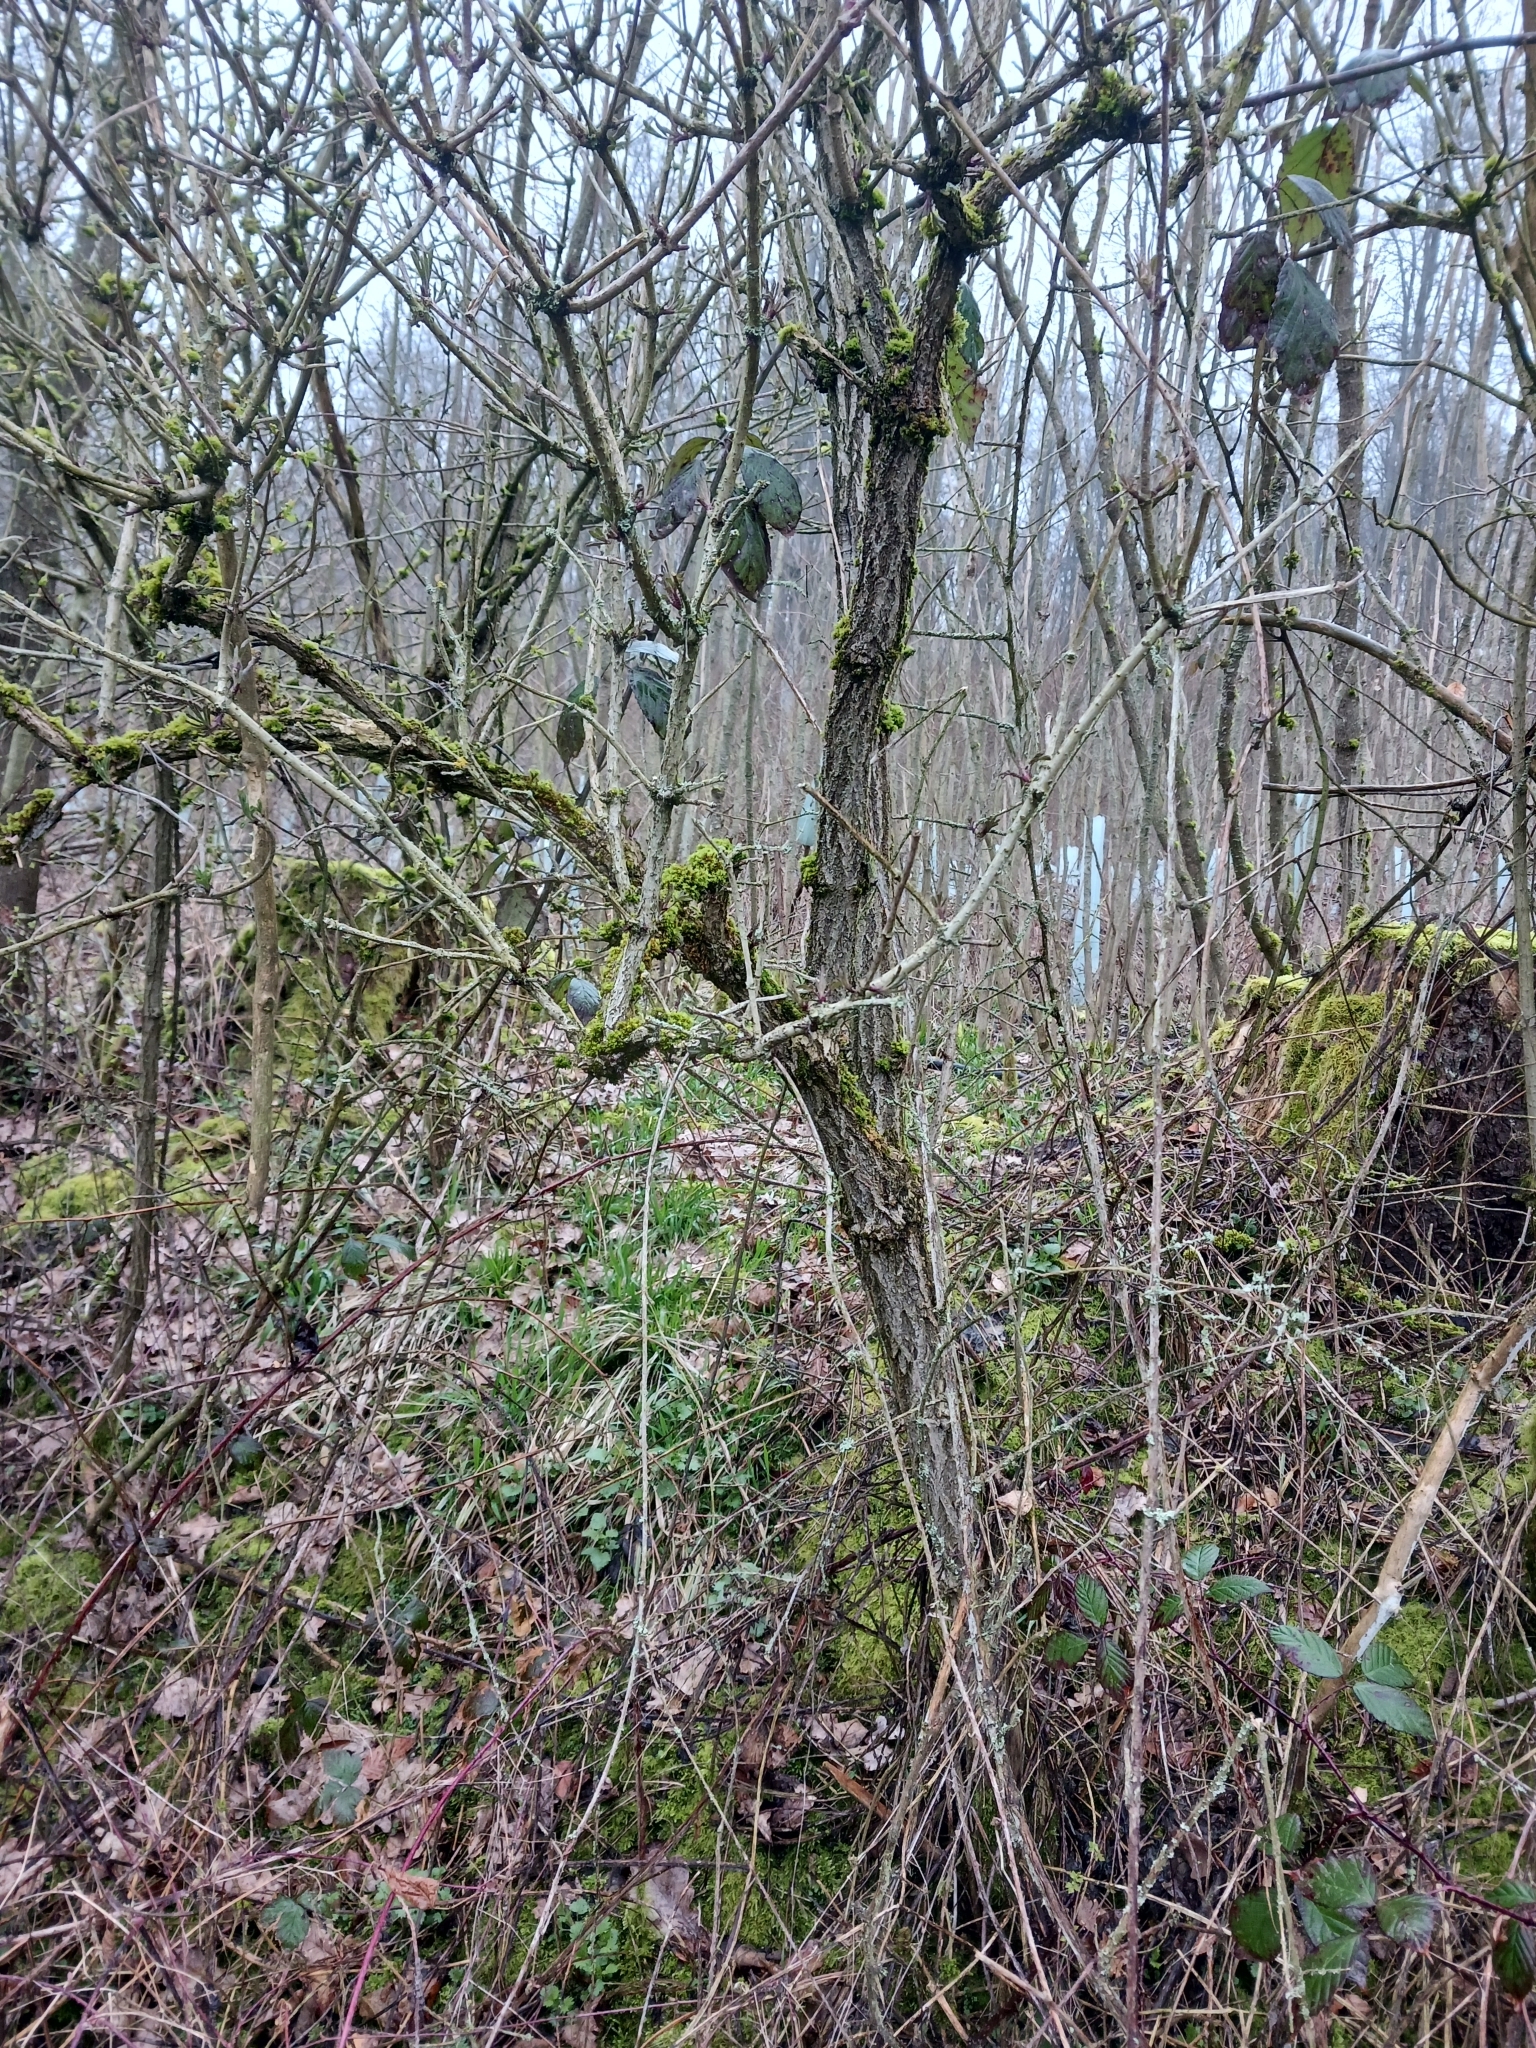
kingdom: Plantae
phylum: Tracheophyta
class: Magnoliopsida
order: Dipsacales
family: Viburnaceae
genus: Sambucus
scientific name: Sambucus nigra
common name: Elder
